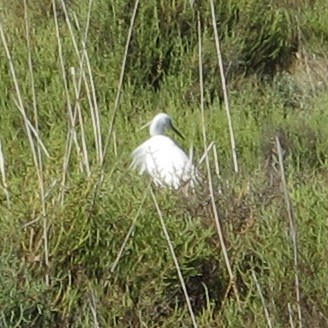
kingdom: Animalia
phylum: Chordata
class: Aves
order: Pelecaniformes
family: Ardeidae
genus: Egretta
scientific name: Egretta garzetta
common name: Little egret
